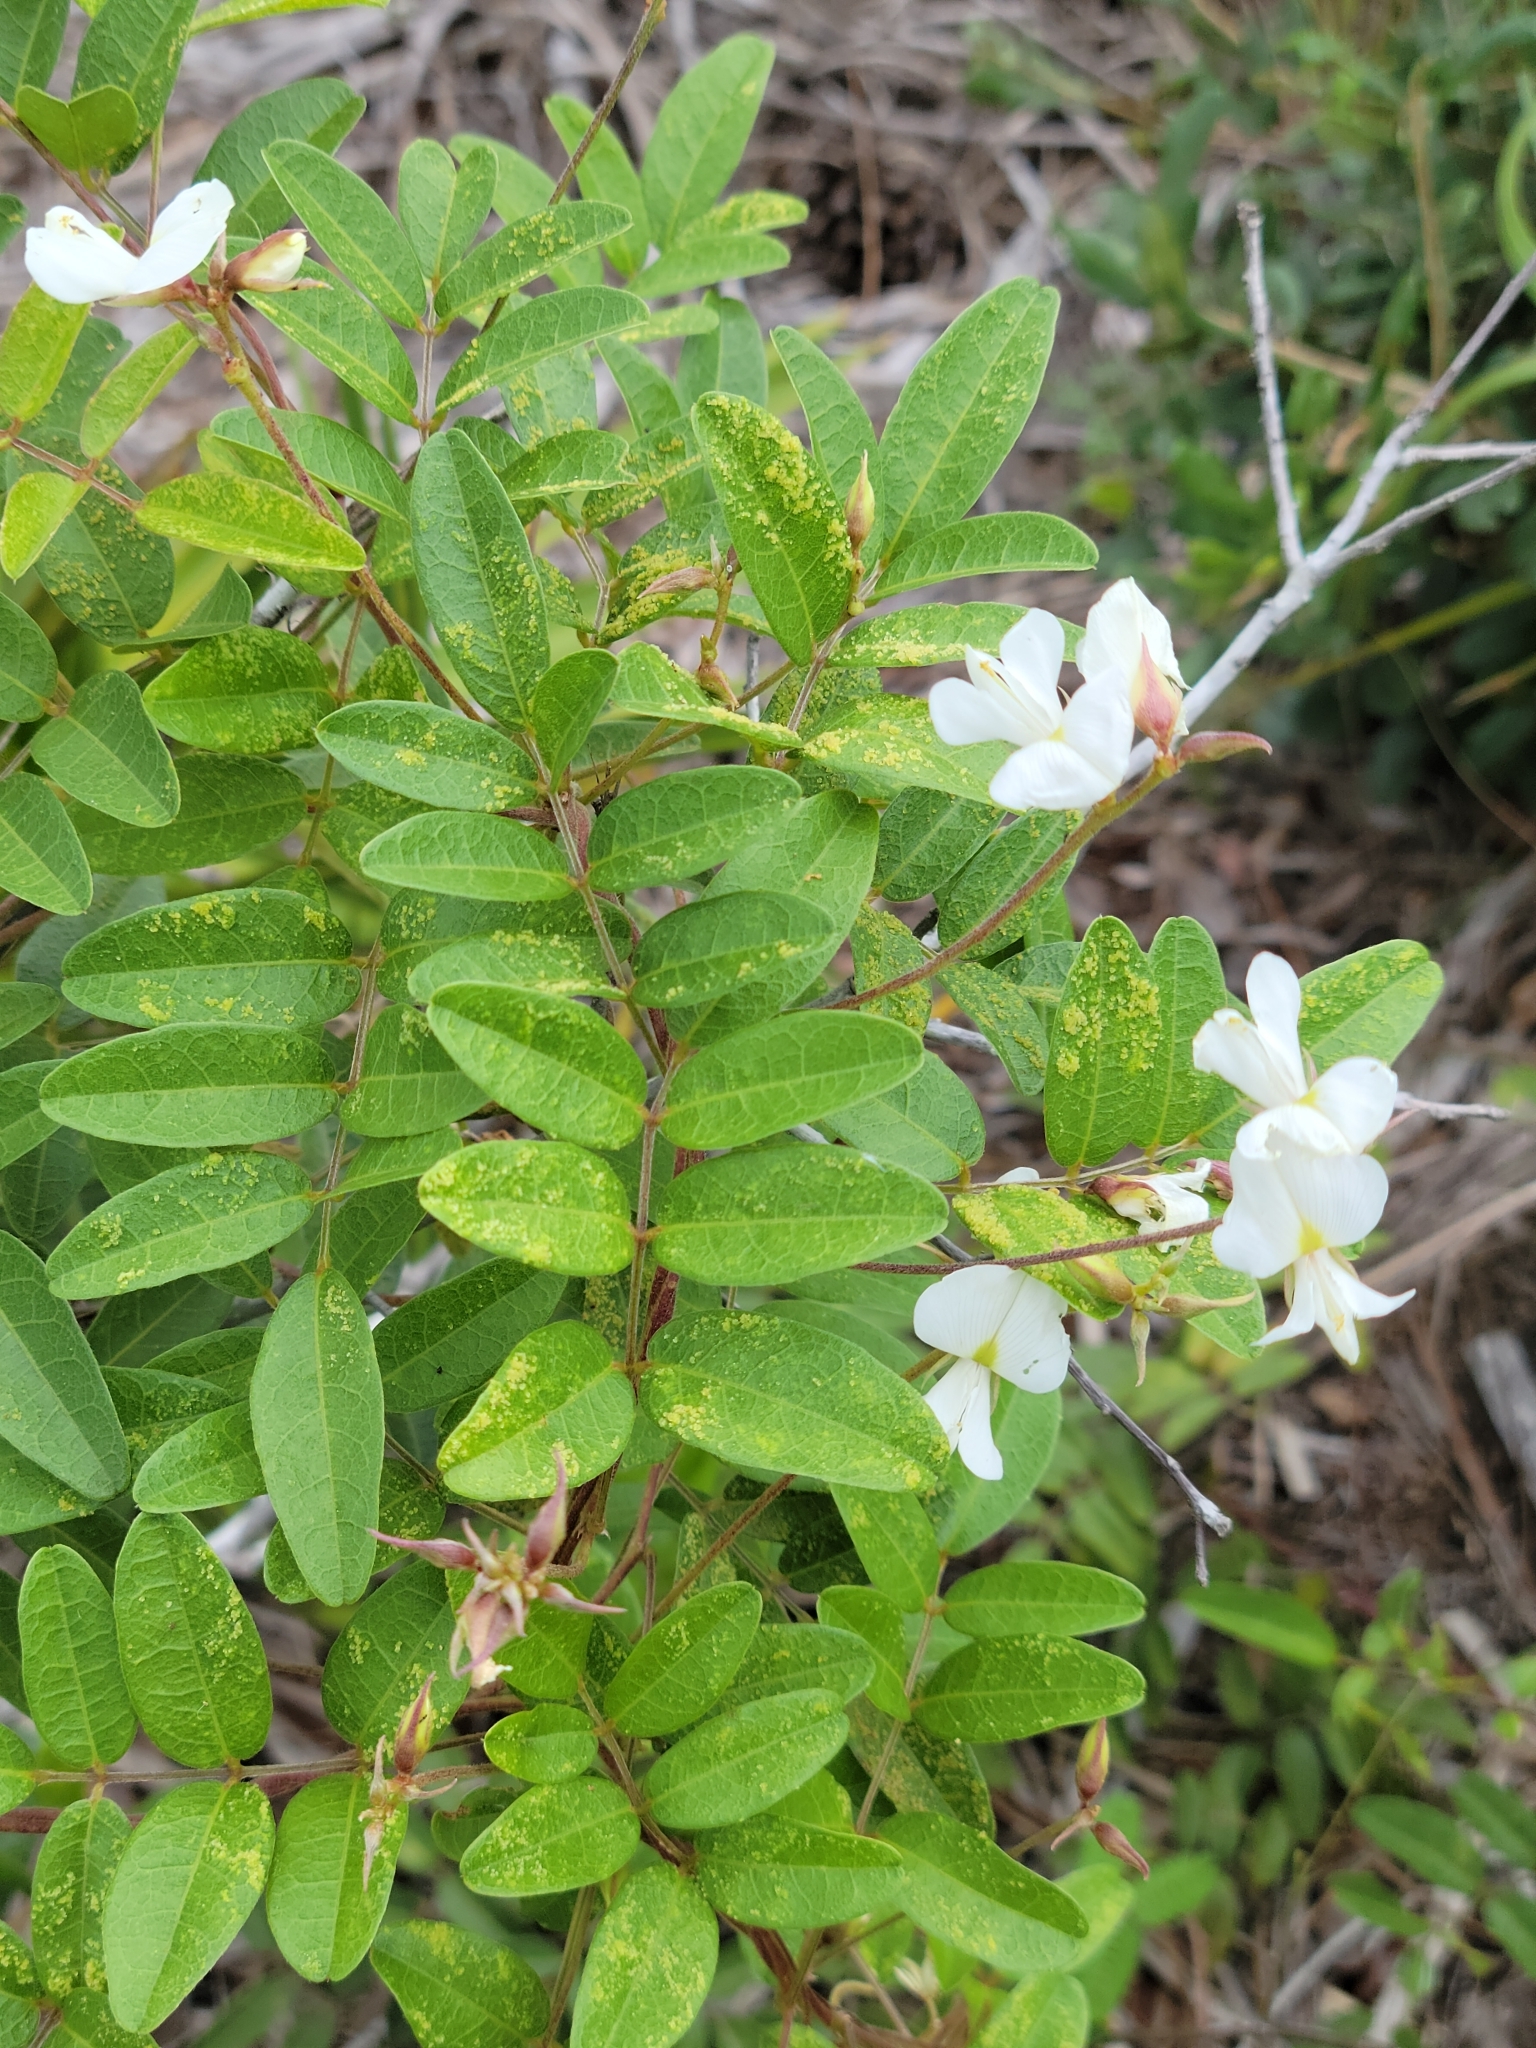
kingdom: Plantae
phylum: Tracheophyta
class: Magnoliopsida
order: Fabales
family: Fabaceae
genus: Galactia
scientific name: Galactia elliottii
